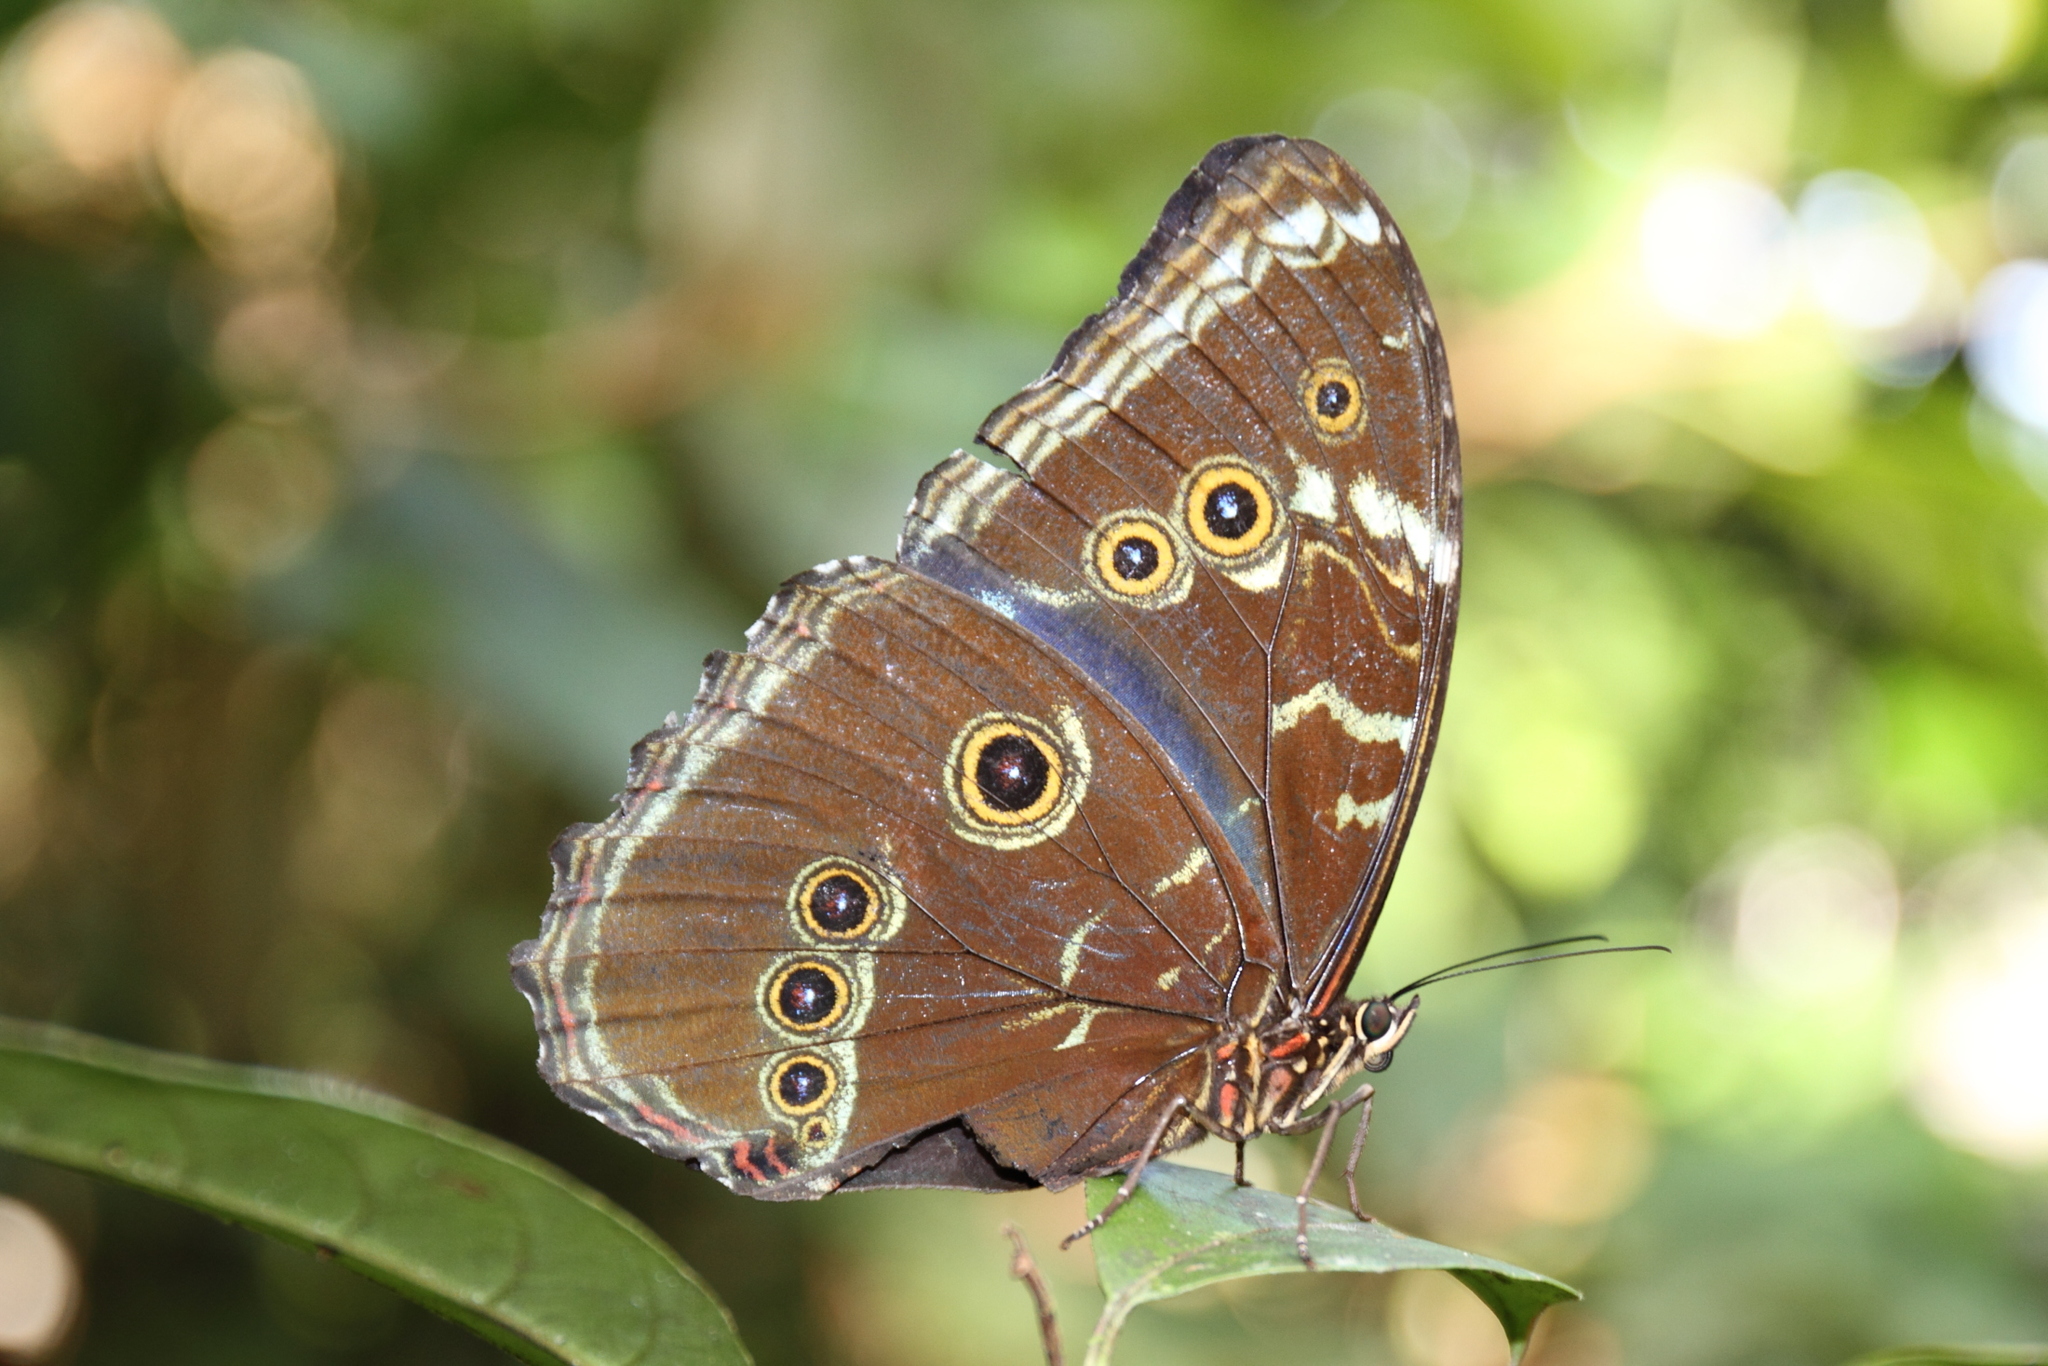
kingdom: Animalia
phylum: Arthropoda
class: Insecta
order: Lepidoptera
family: Nymphalidae
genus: Morpho
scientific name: Morpho achilles
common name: Achilles morpho
